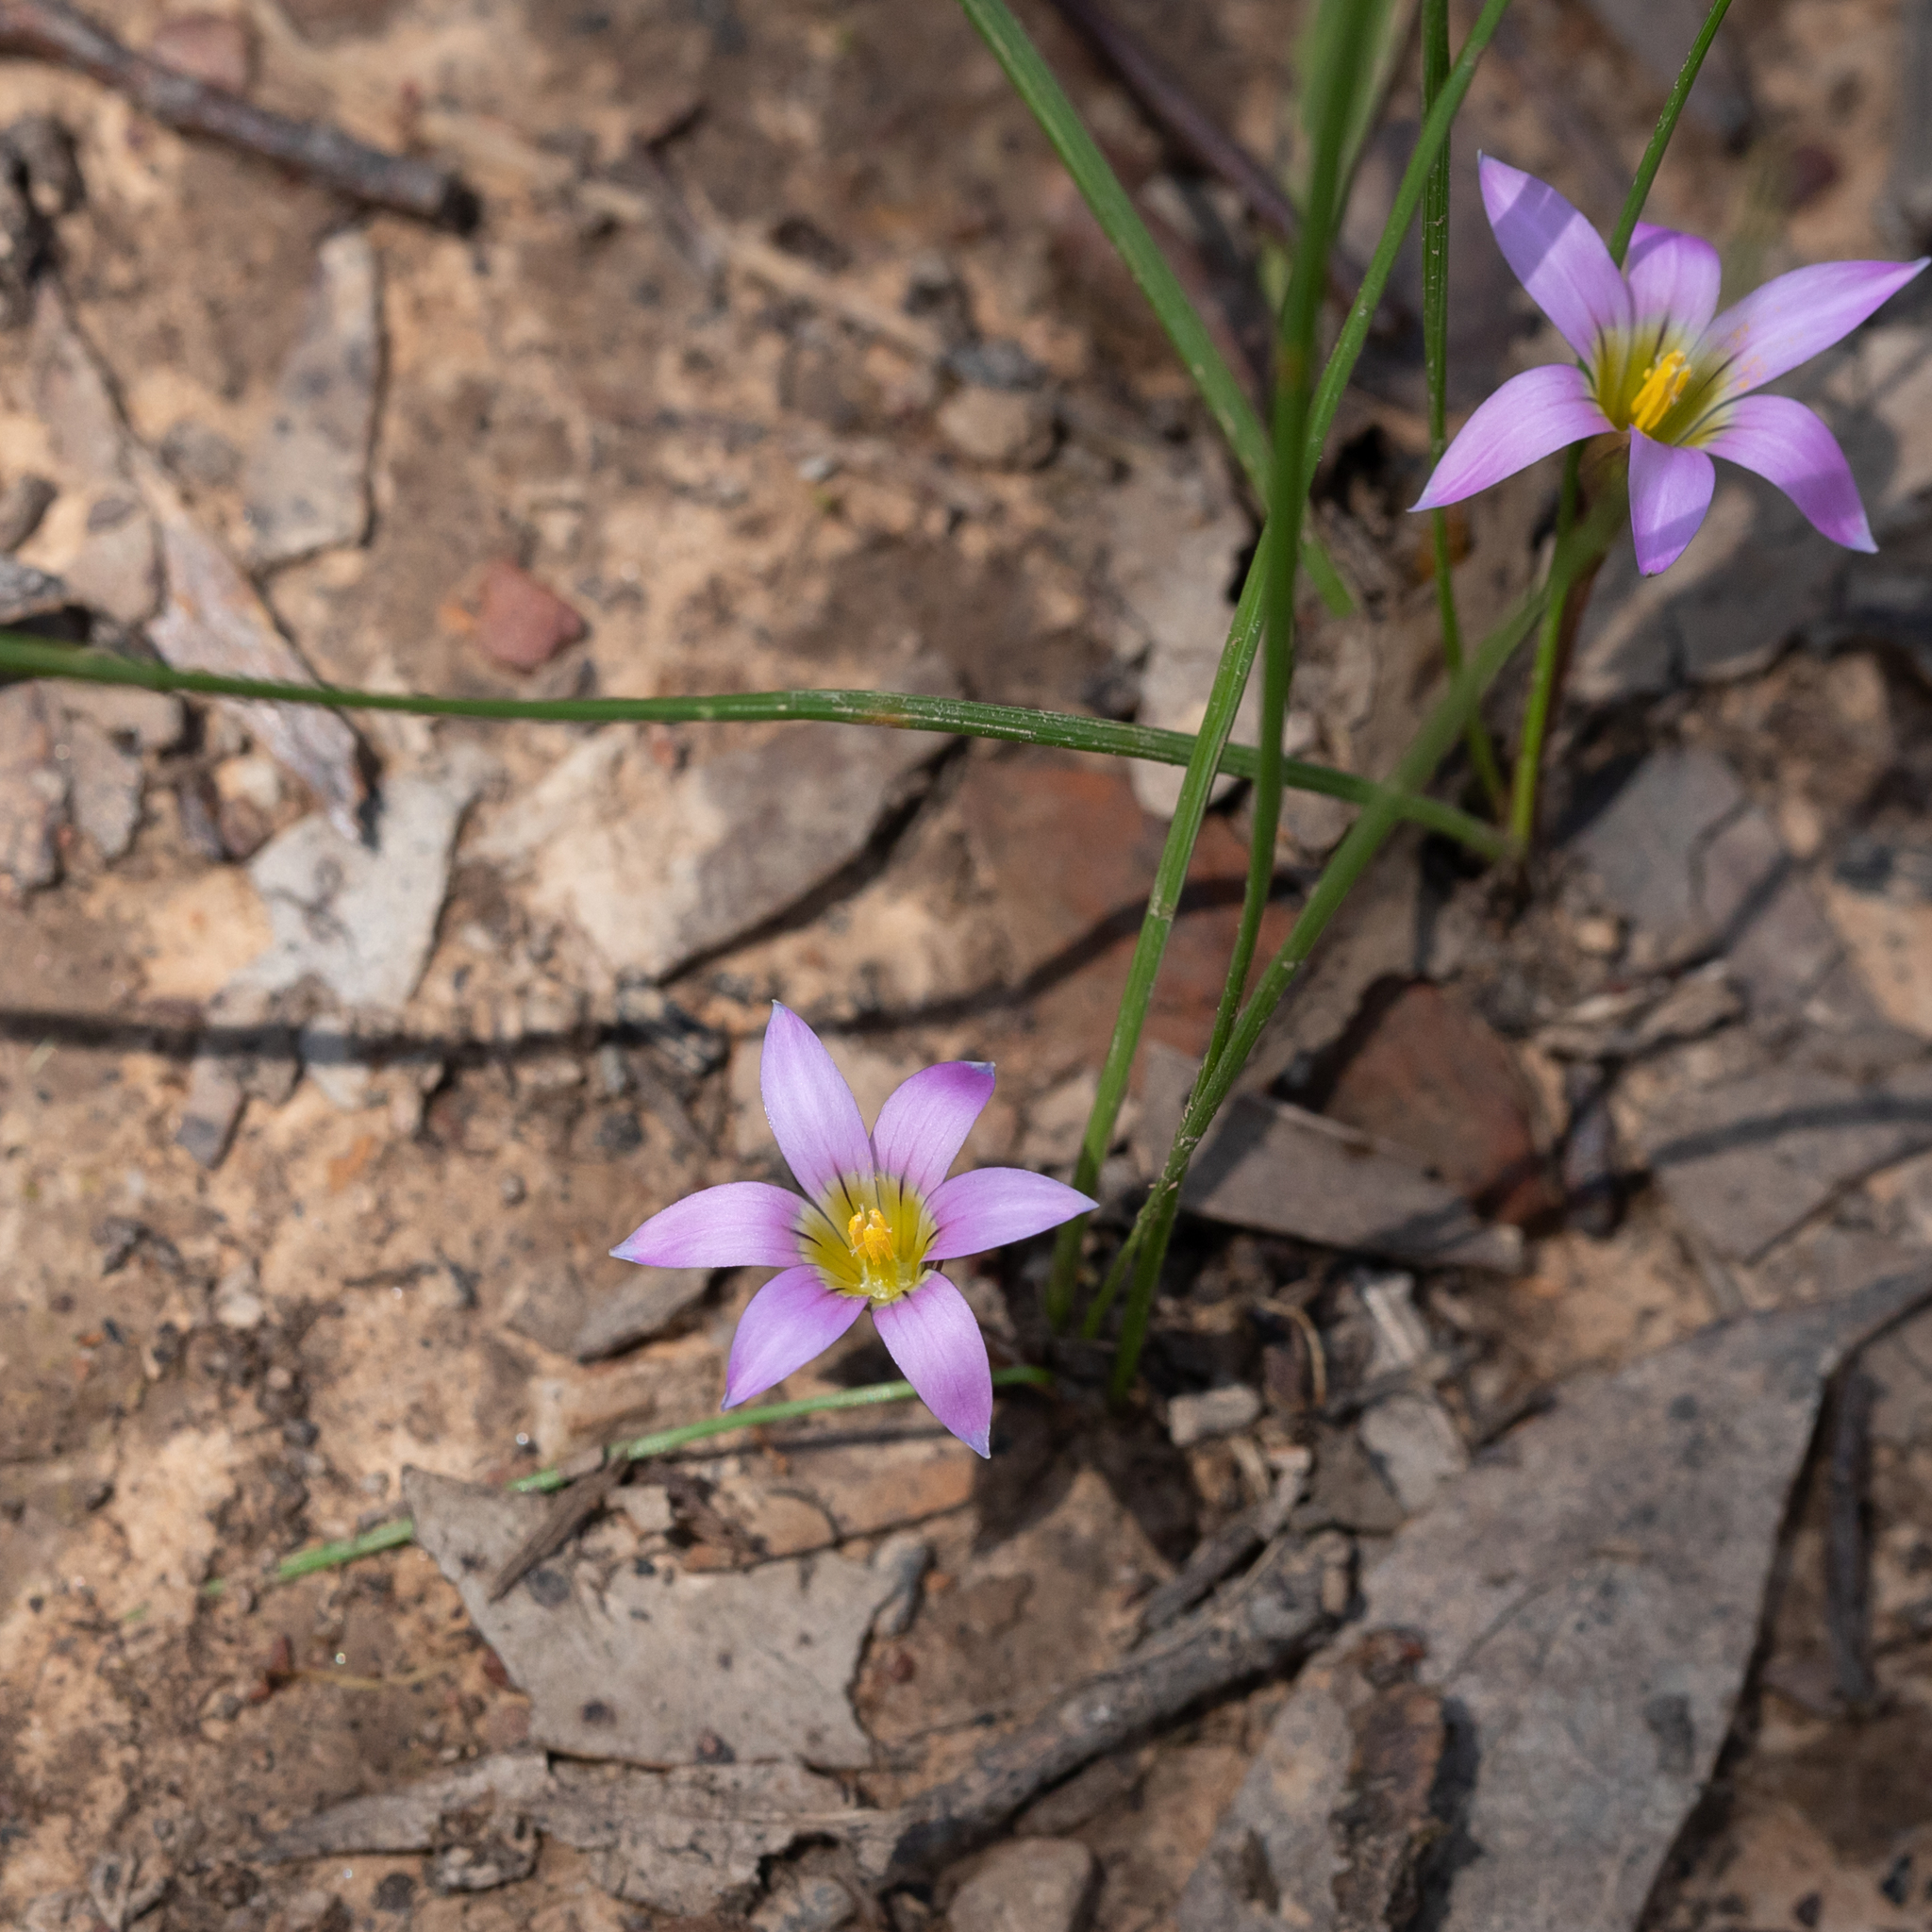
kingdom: Plantae
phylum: Tracheophyta
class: Liliopsida
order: Asparagales
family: Iridaceae
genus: Romulea
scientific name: Romulea rosea
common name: Oniongrass
